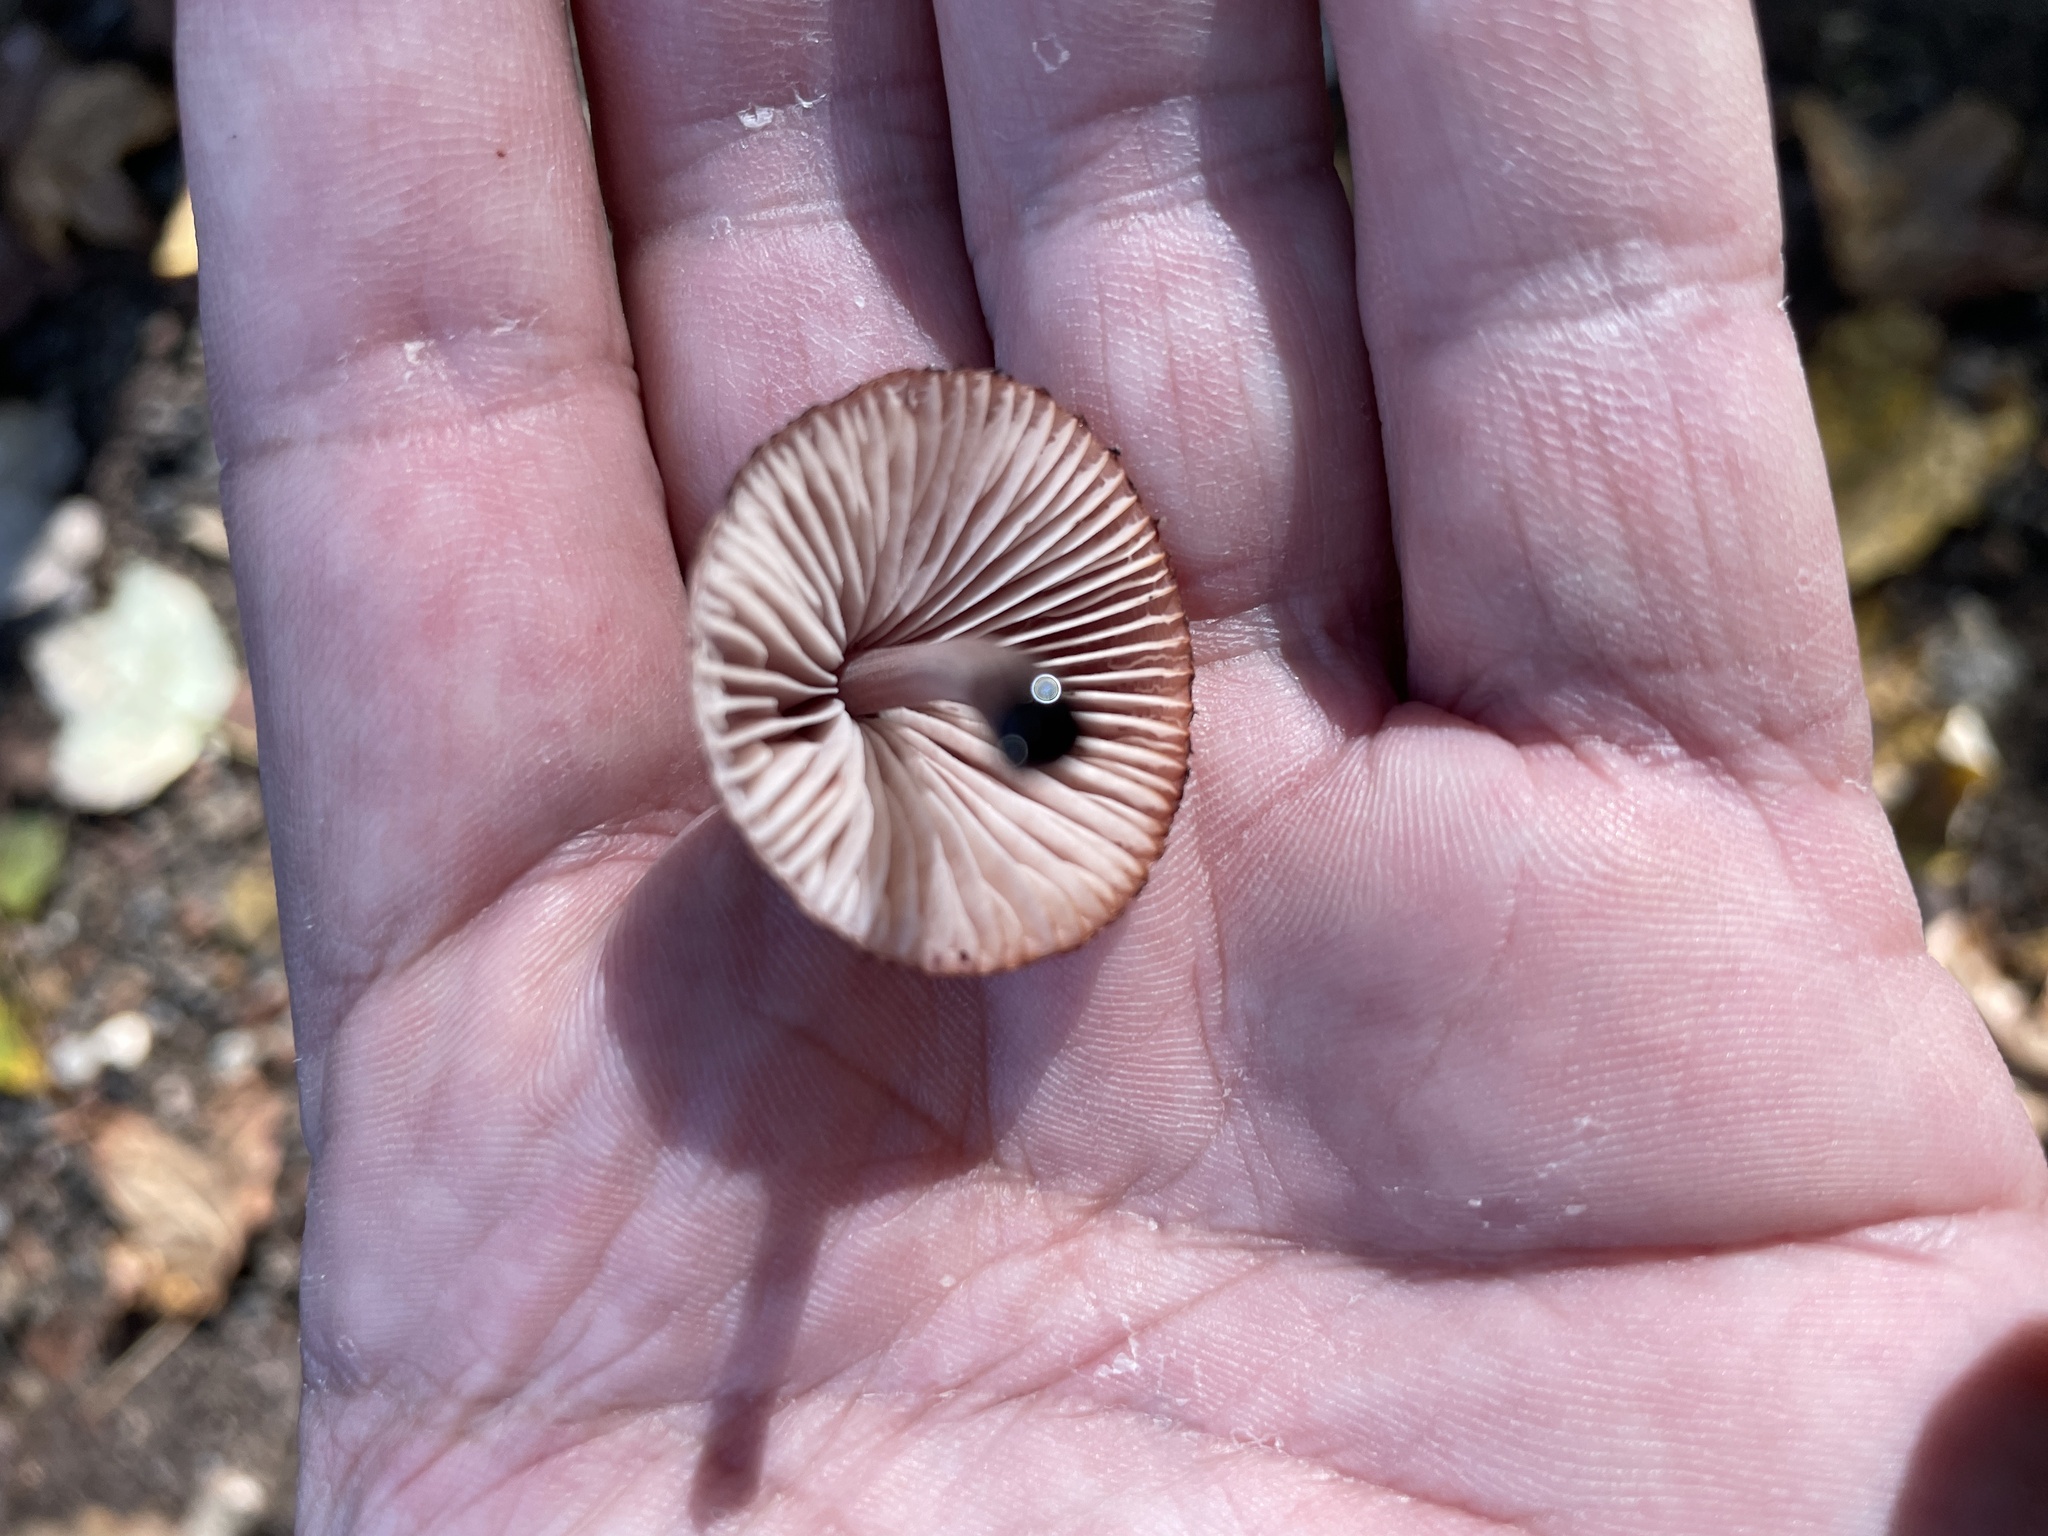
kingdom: Fungi
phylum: Basidiomycota
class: Agaricomycetes
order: Agaricales
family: Mycenaceae
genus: Mycena
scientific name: Mycena haematopus
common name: Burgundydrop bonnet
